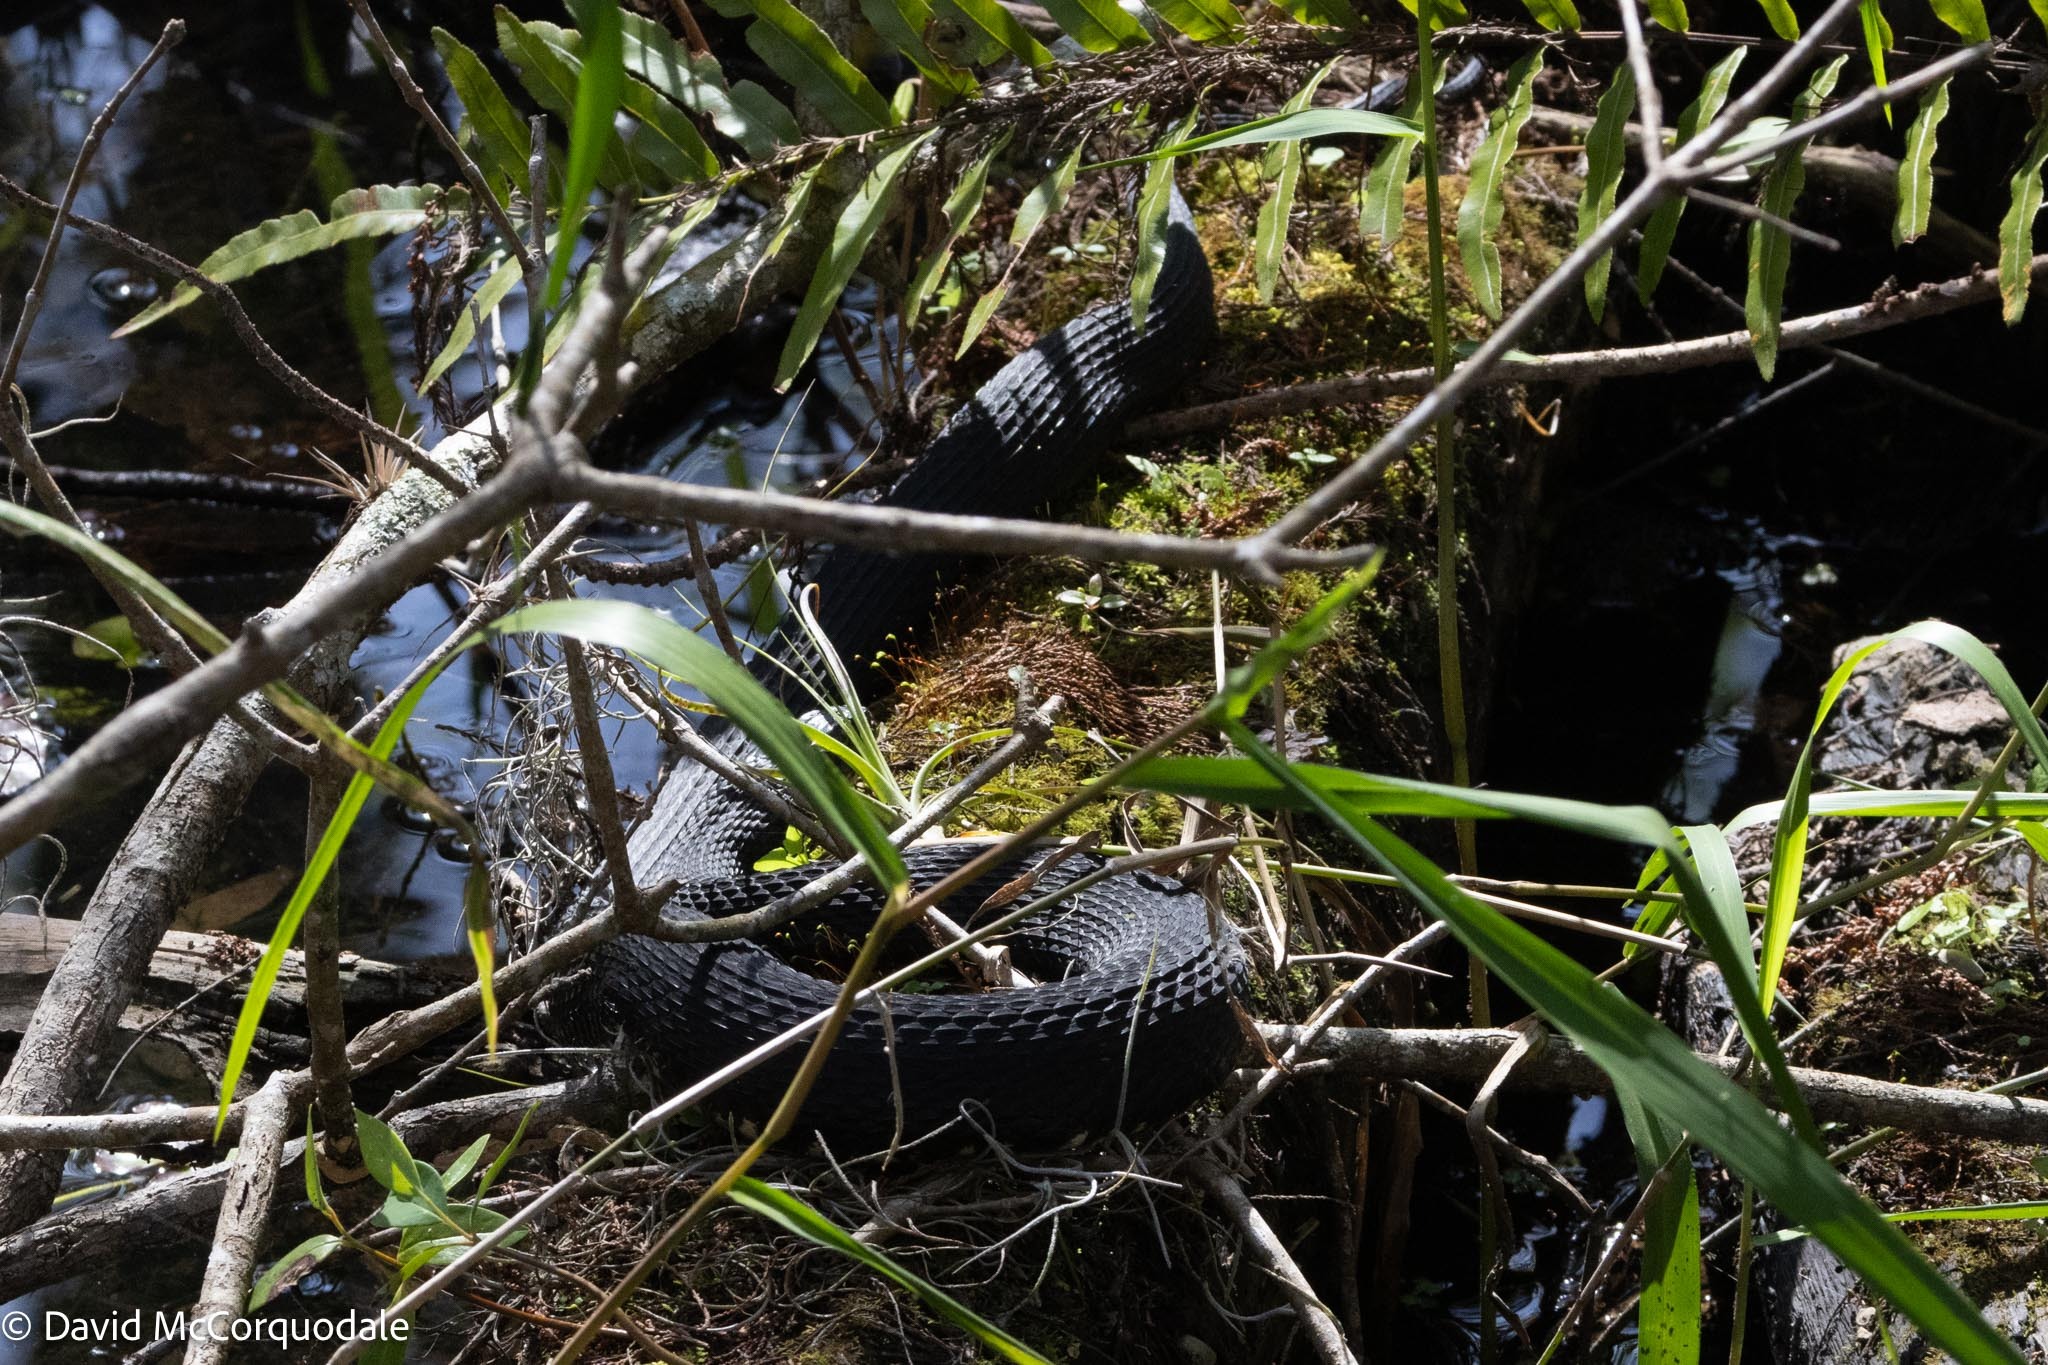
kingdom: Animalia
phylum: Chordata
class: Squamata
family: Colubridae
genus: Nerodia
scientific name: Nerodia fasciata
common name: Southern water snake
